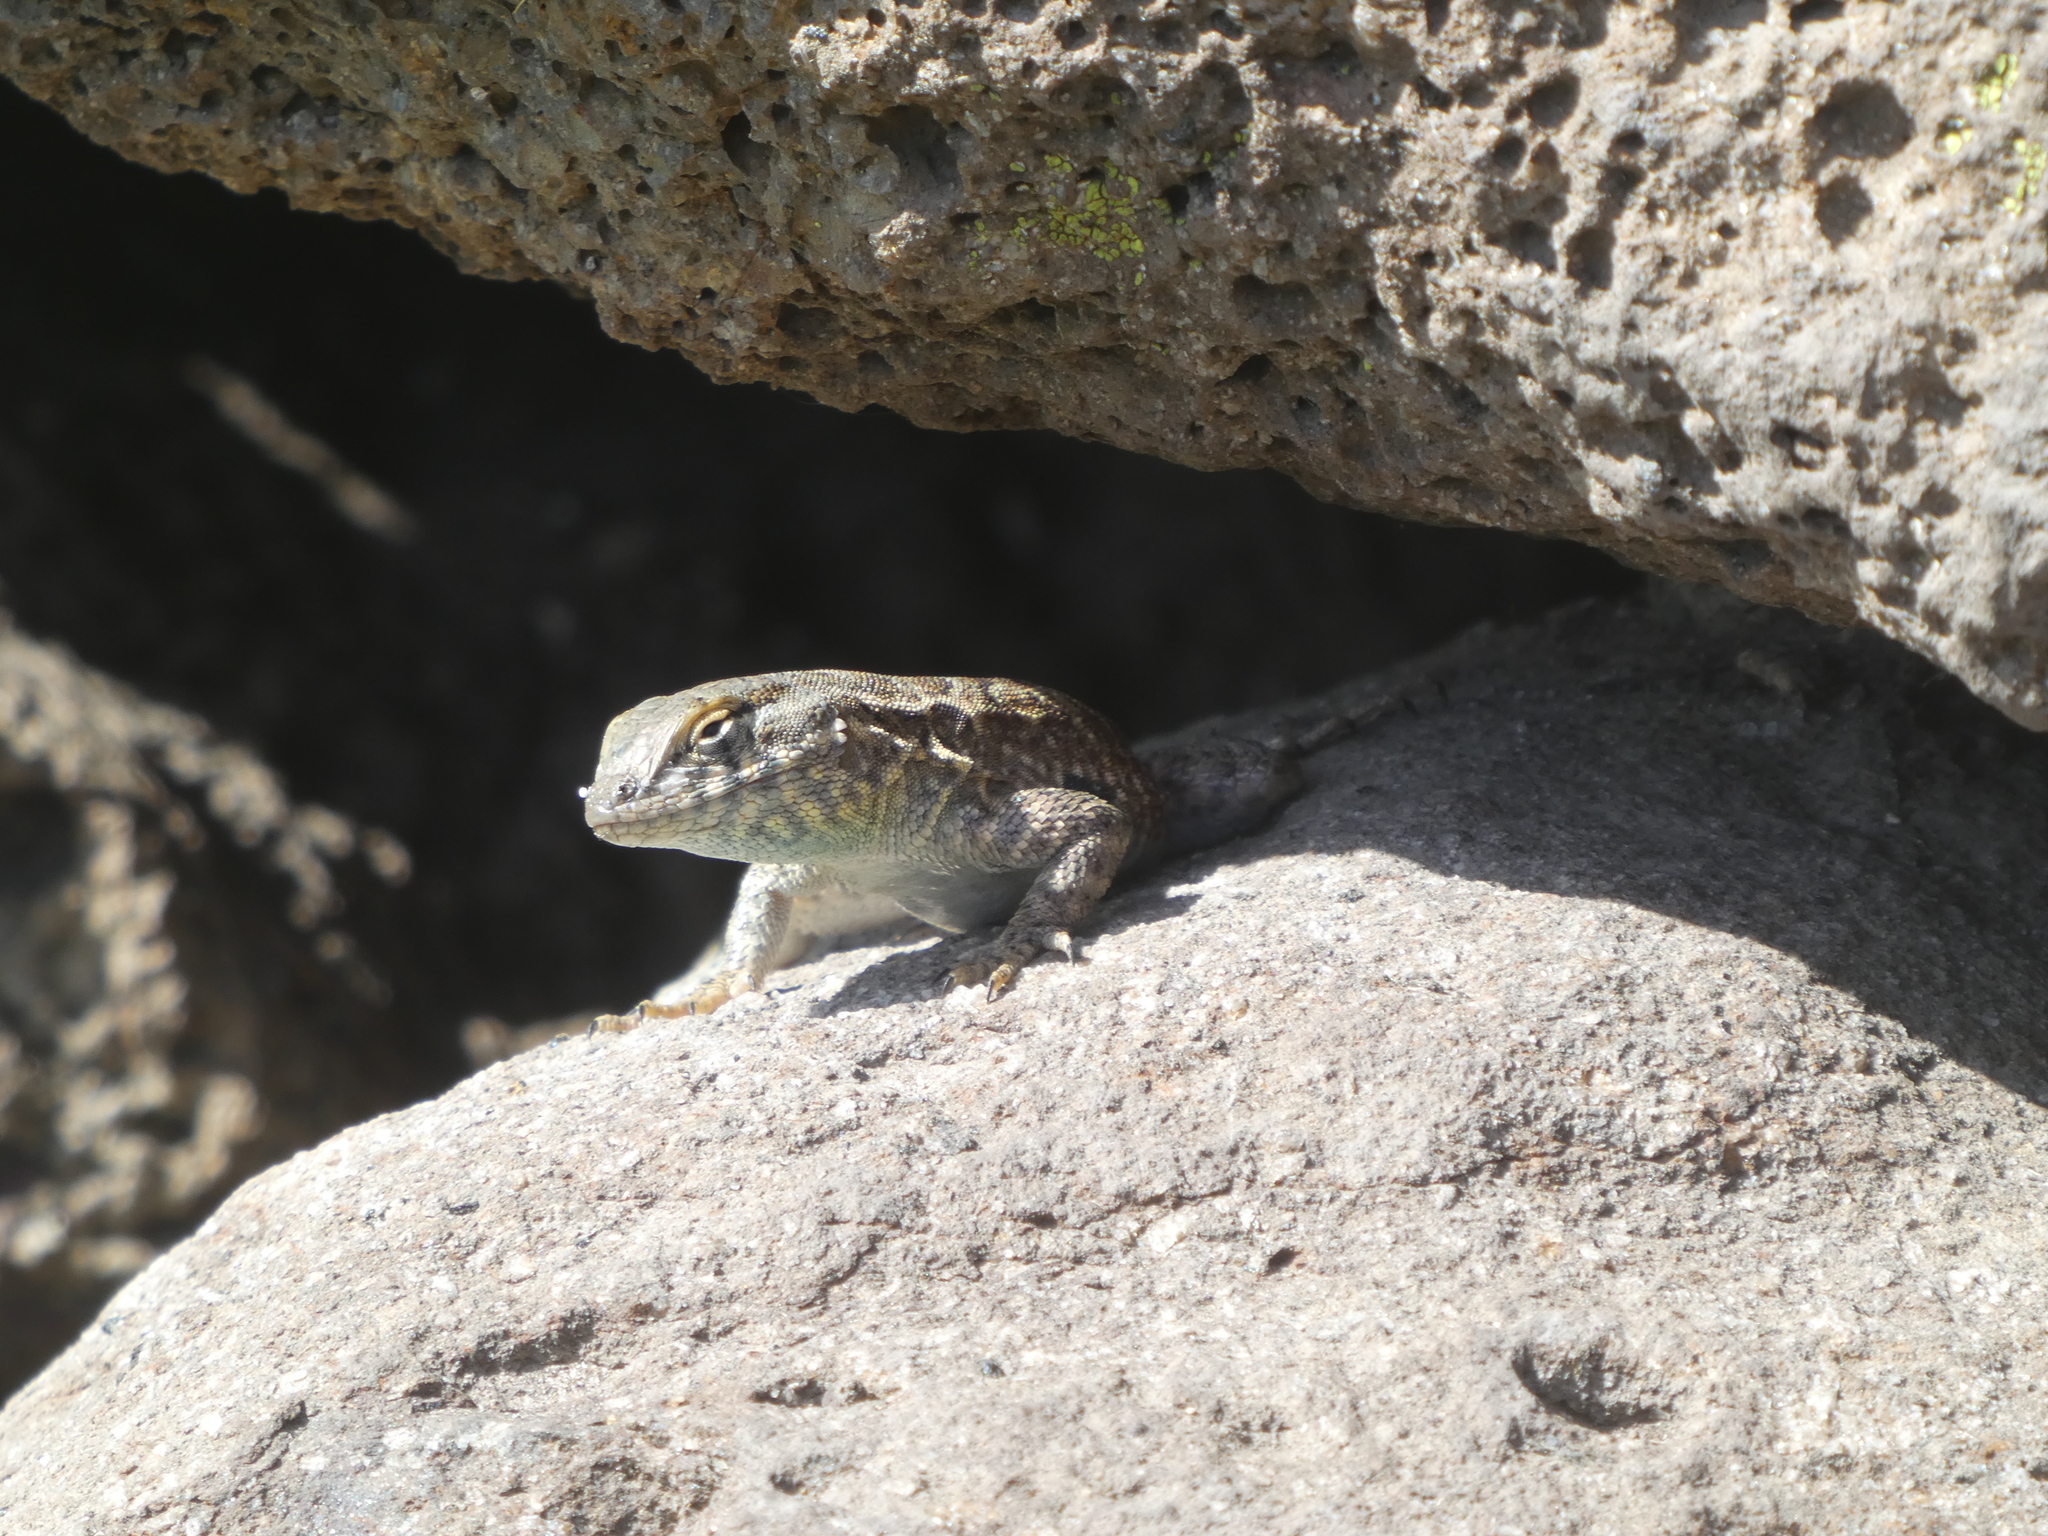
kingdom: Animalia
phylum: Chordata
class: Squamata
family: Phrynosomatidae
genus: Uta
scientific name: Uta stansburiana
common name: Side-blotched lizard
